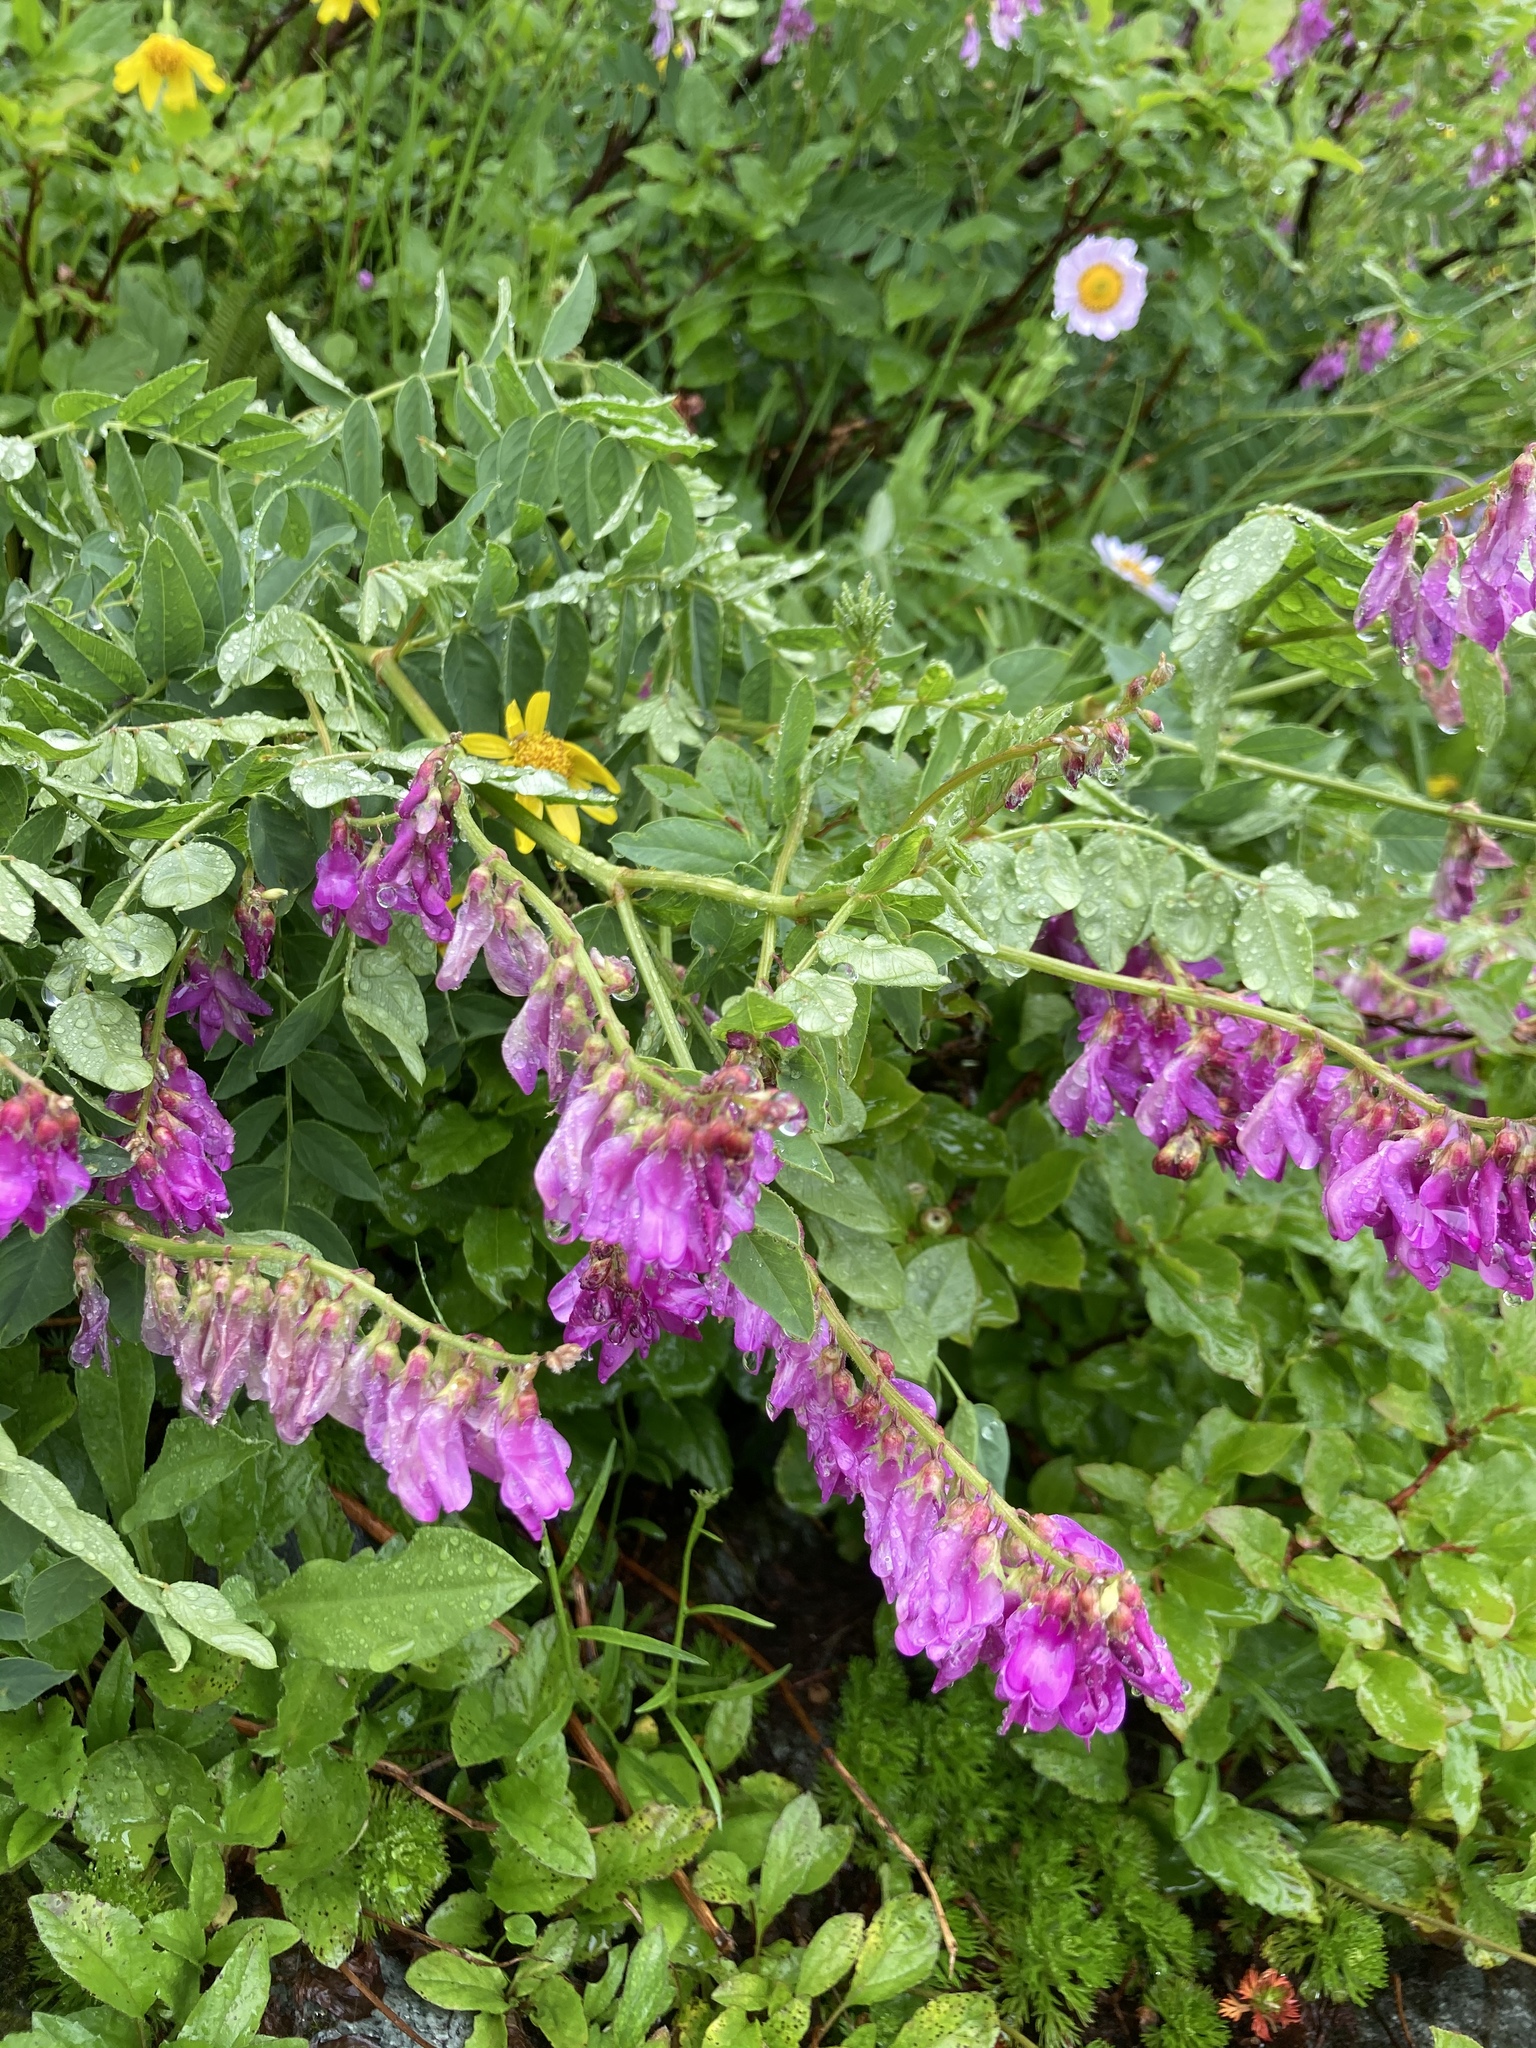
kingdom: Plantae
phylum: Tracheophyta
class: Magnoliopsida
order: Fabales
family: Fabaceae
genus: Hedysarum
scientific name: Hedysarum occidentale
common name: Western hedysarum
